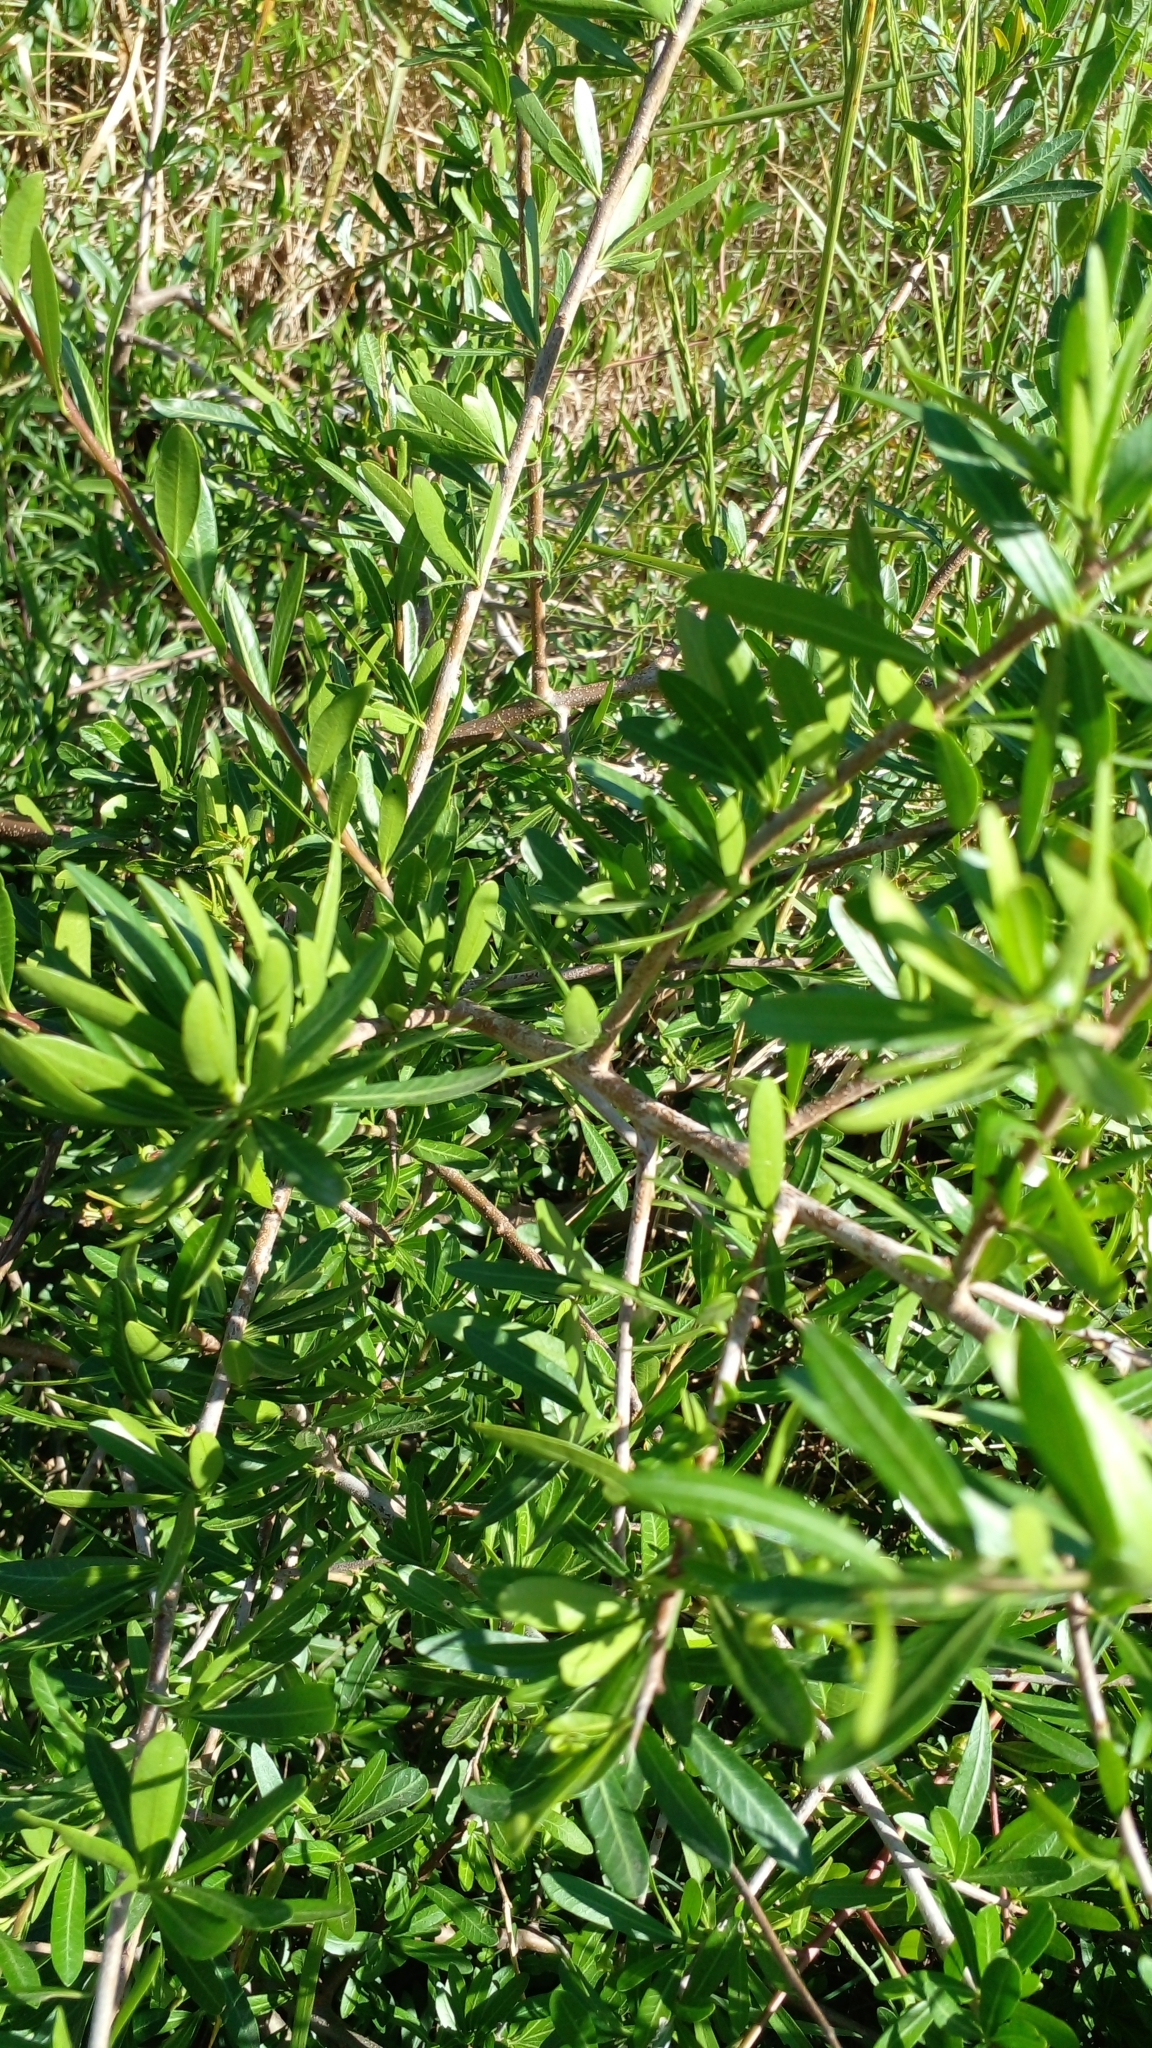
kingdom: Plantae
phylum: Tracheophyta
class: Magnoliopsida
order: Sapindales
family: Anacardiaceae
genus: Schinus
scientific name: Schinus longifolia
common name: Longleaf peppertree
